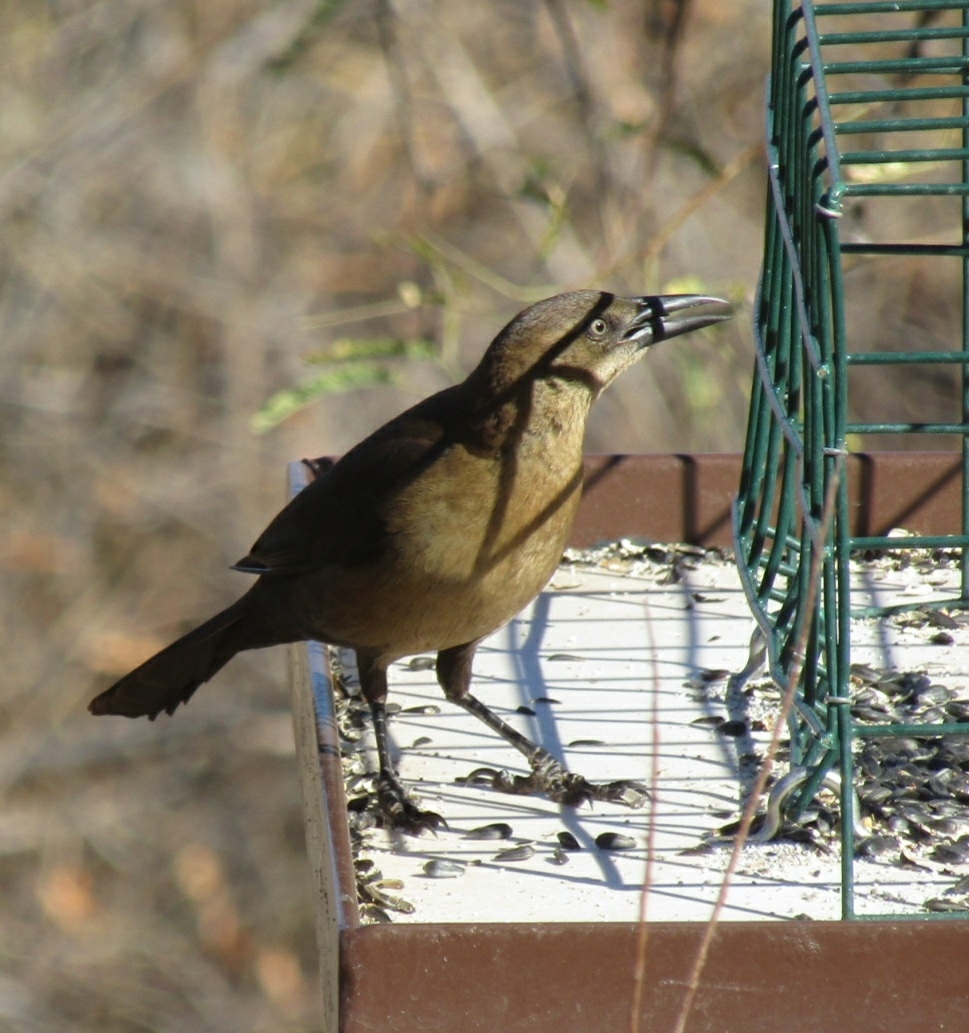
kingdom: Animalia
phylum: Chordata
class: Aves
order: Passeriformes
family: Icteridae
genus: Quiscalus
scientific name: Quiscalus mexicanus
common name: Great-tailed grackle
